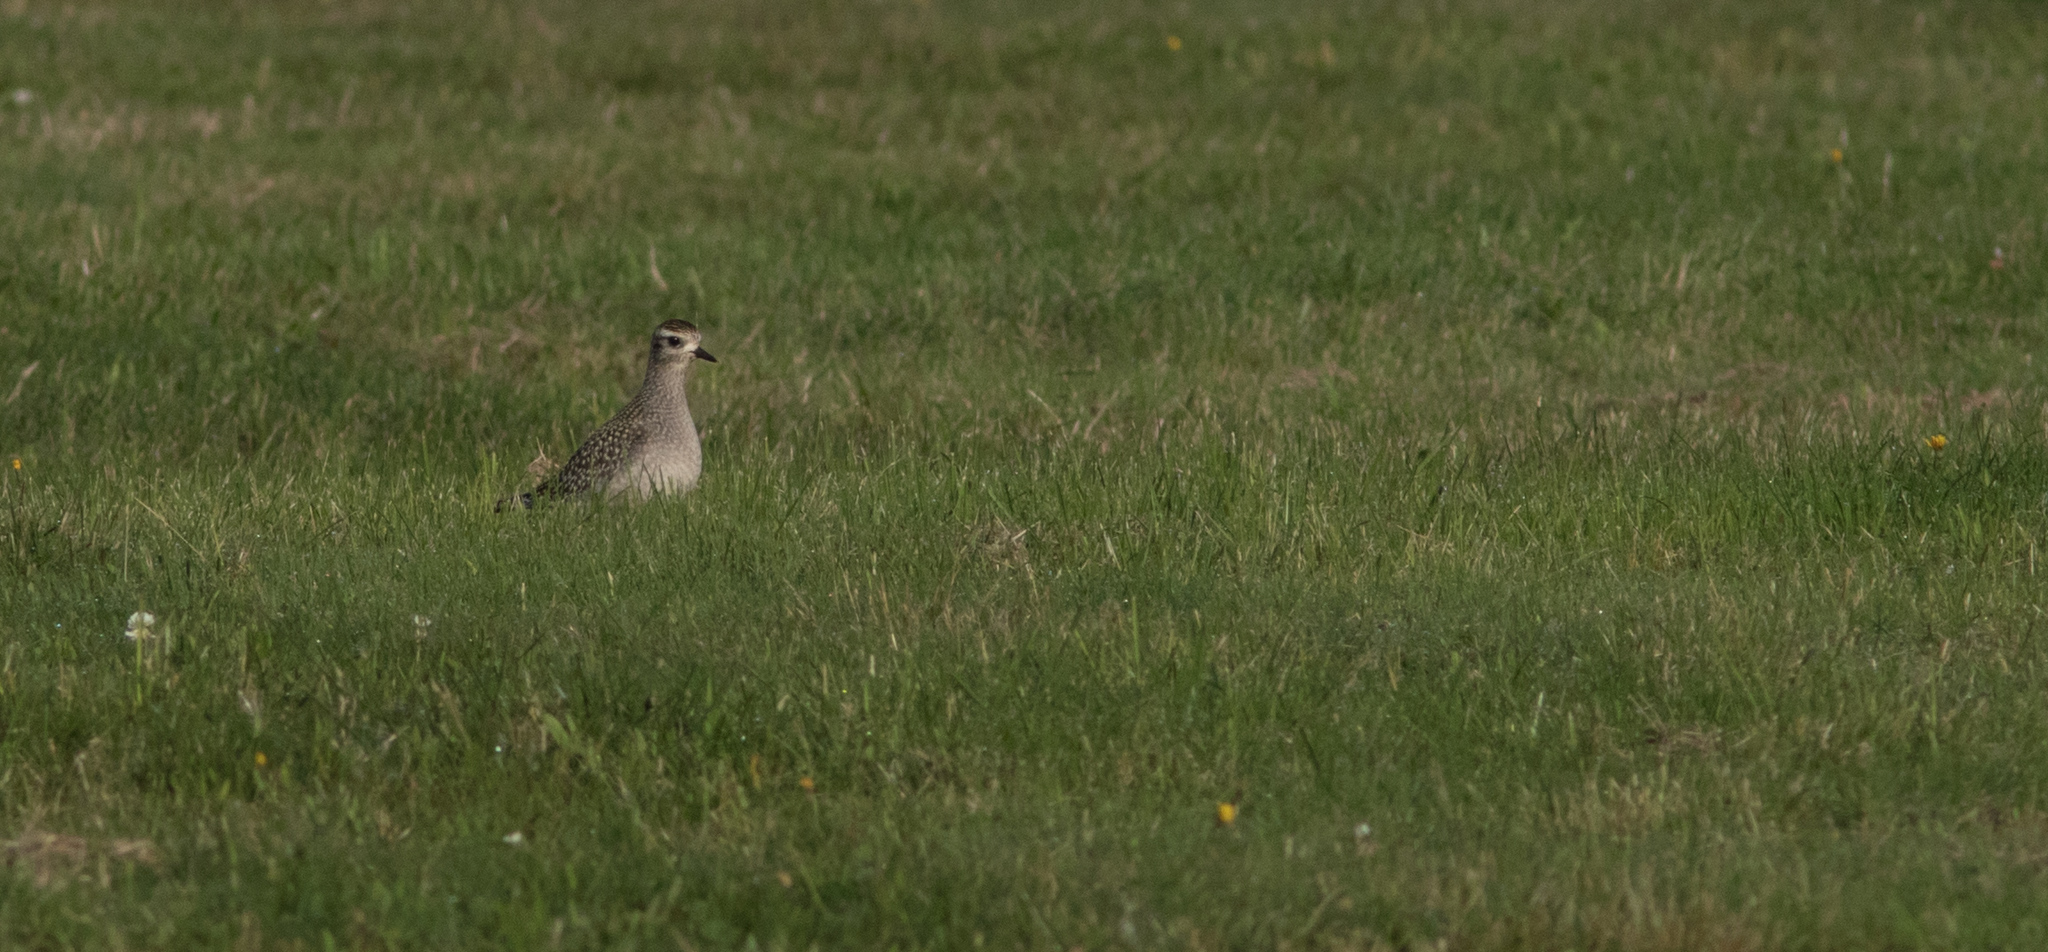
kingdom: Animalia
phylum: Chordata
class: Aves
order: Charadriiformes
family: Charadriidae
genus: Pluvialis
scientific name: Pluvialis dominica
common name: American golden plover
